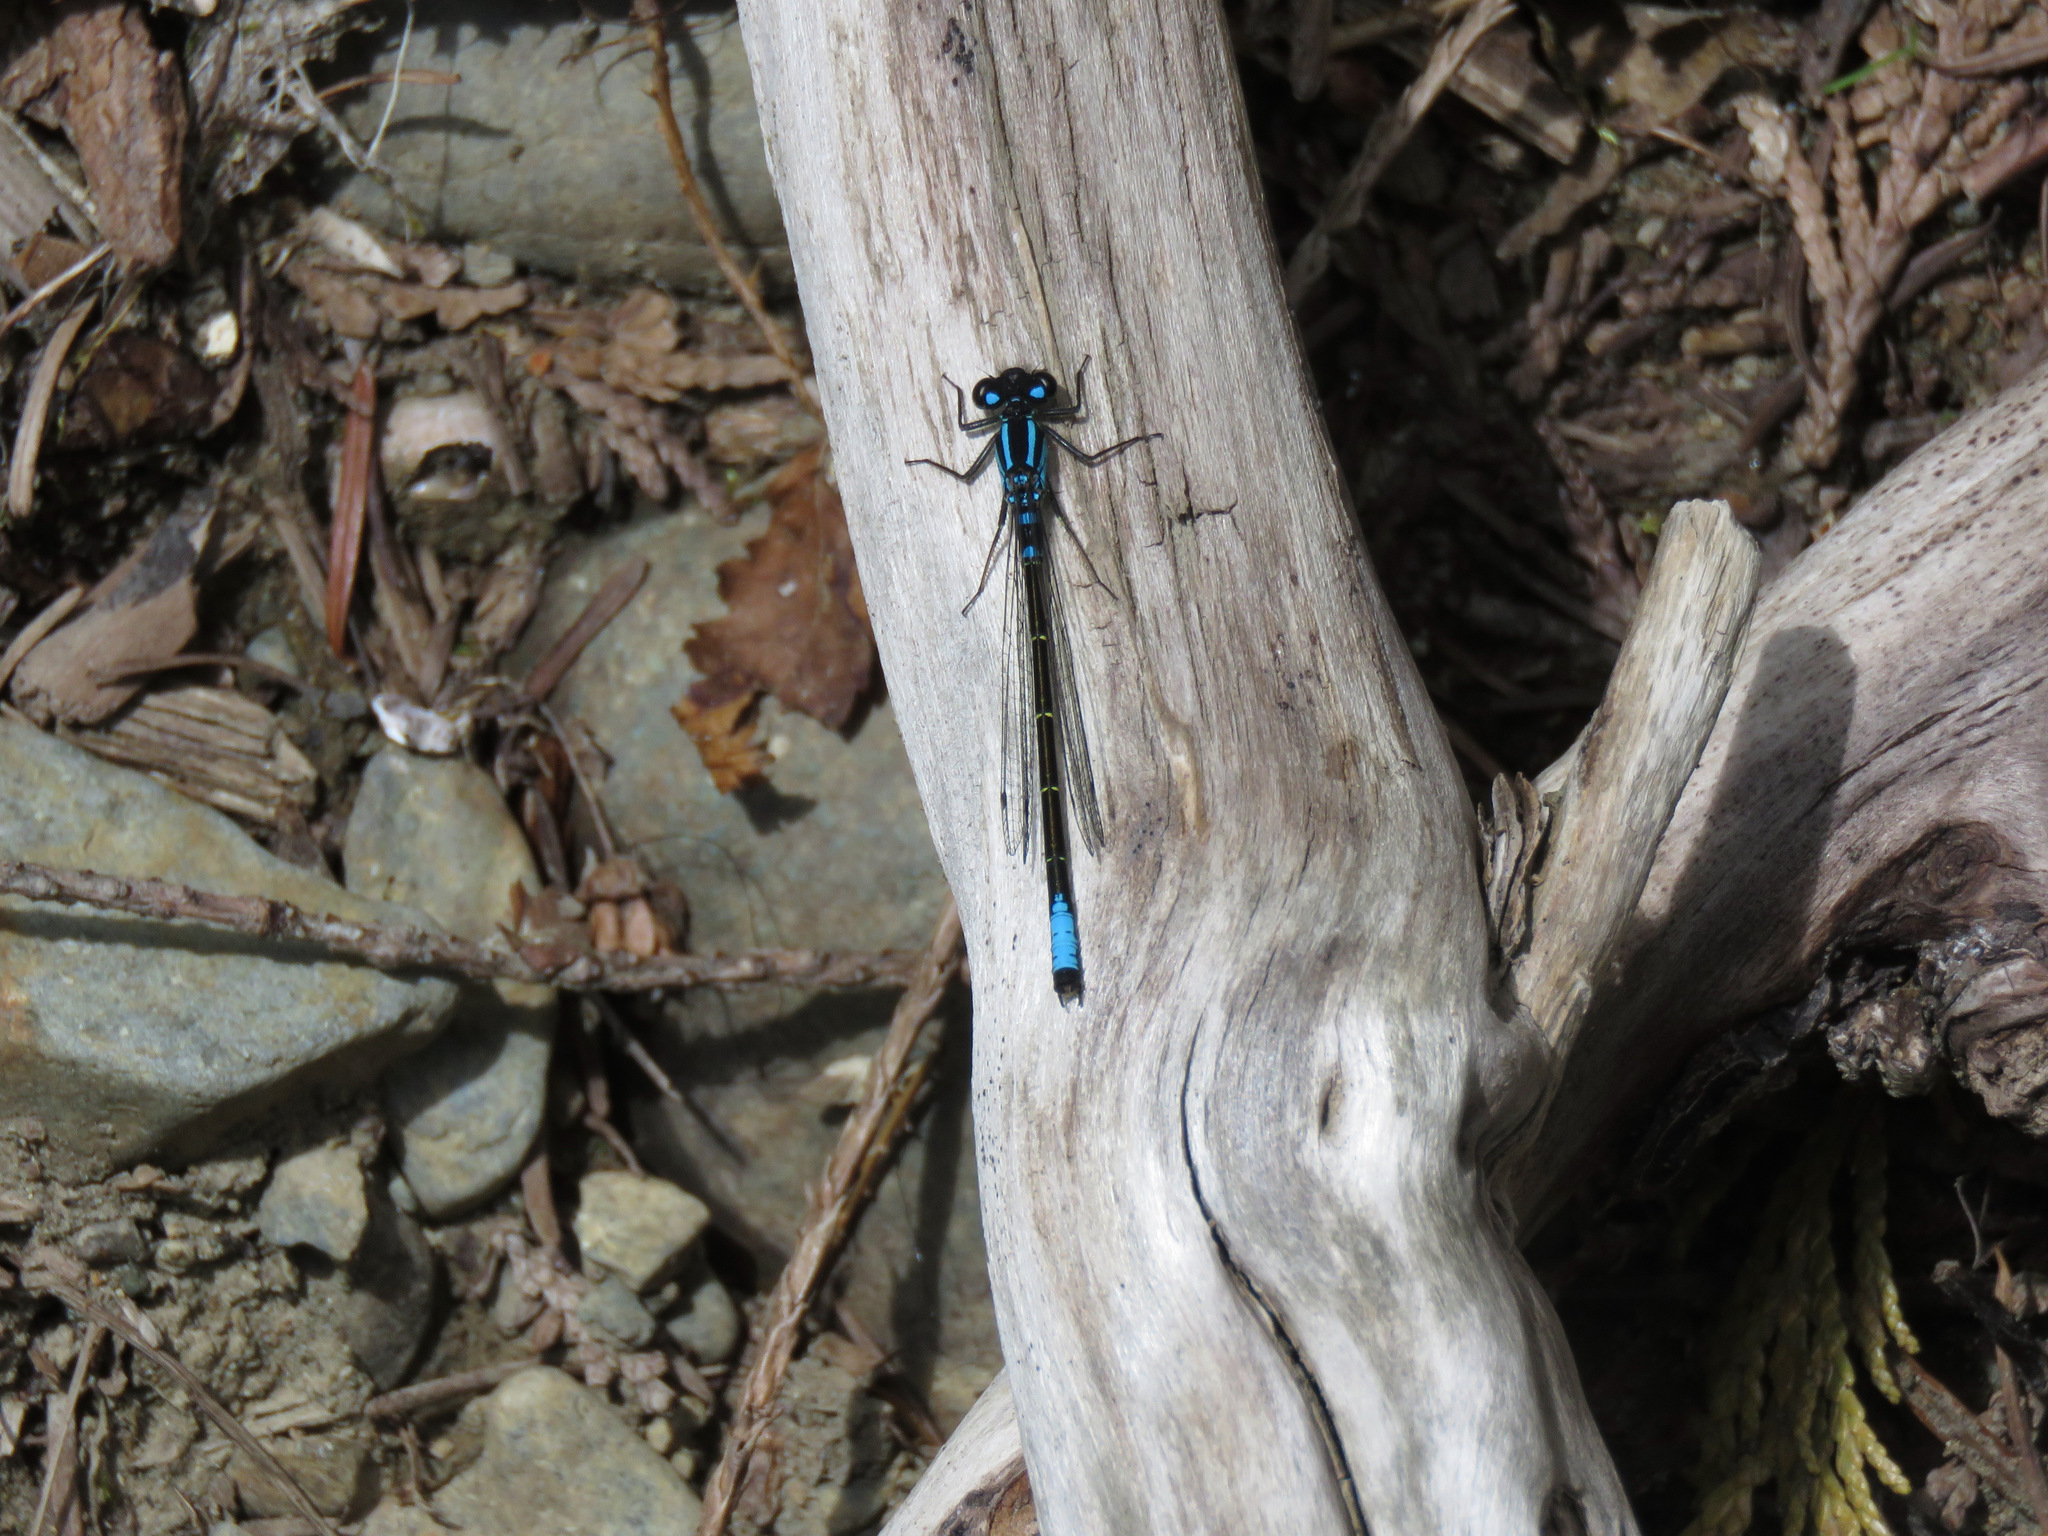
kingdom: Animalia
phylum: Arthropoda
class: Insecta
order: Odonata
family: Coenagrionidae
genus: Ischnura
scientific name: Ischnura erratica
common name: Swift forktail
